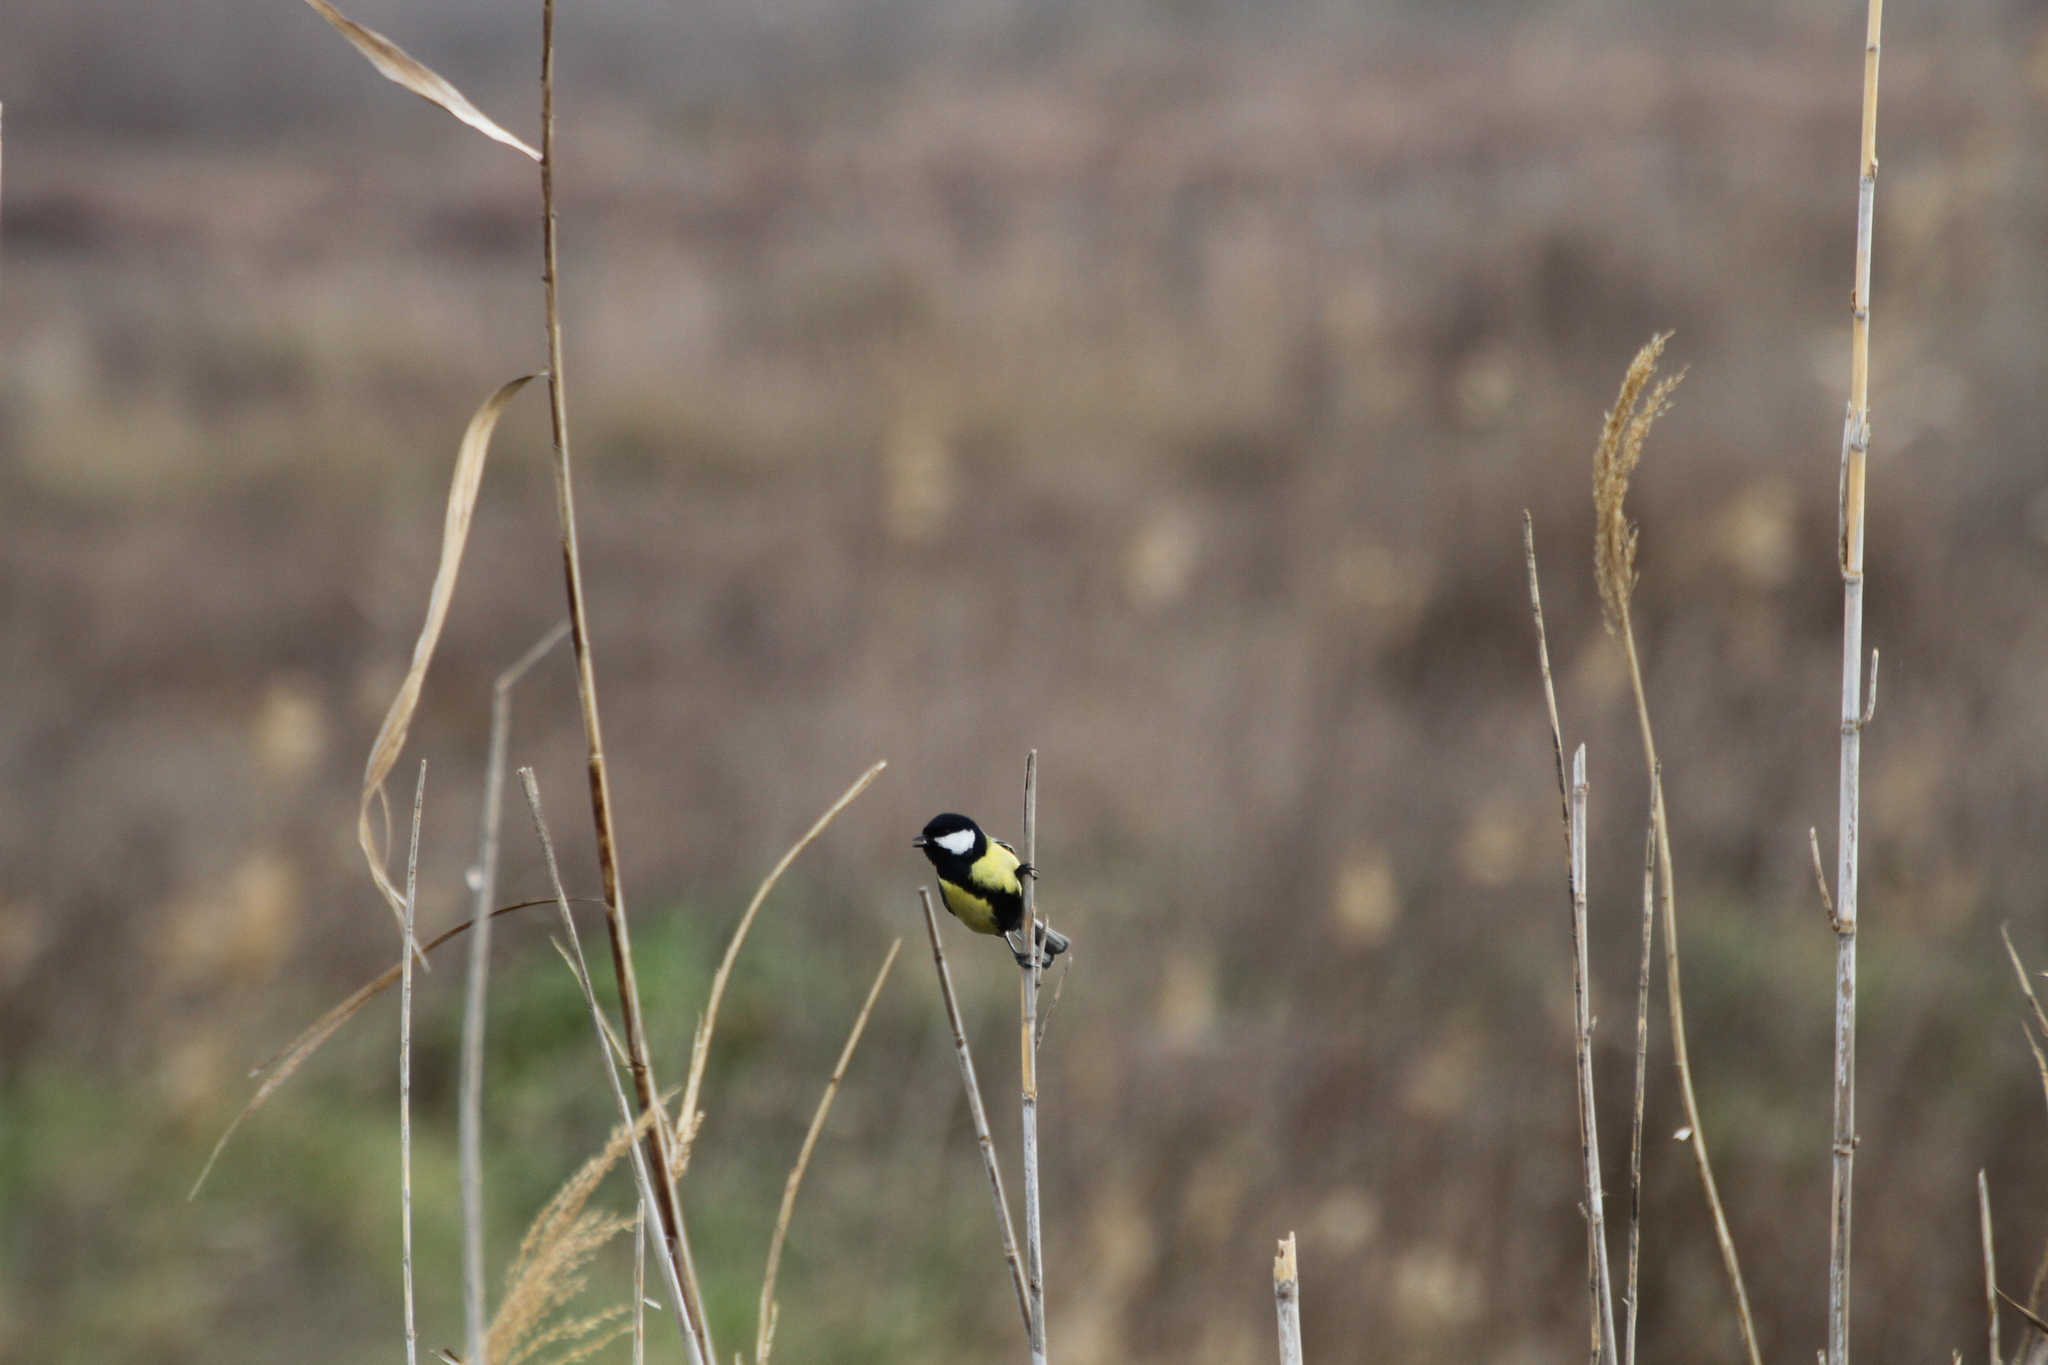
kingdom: Animalia
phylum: Chordata
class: Aves
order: Passeriformes
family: Paridae
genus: Parus
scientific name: Parus major
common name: Great tit
